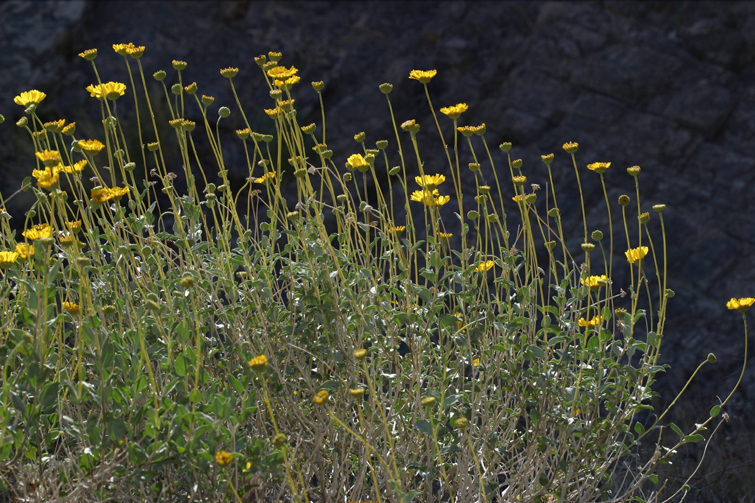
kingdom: Plantae
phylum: Tracheophyta
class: Magnoliopsida
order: Asterales
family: Asteraceae
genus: Encelia
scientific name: Encelia actoni
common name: Acton encelia
